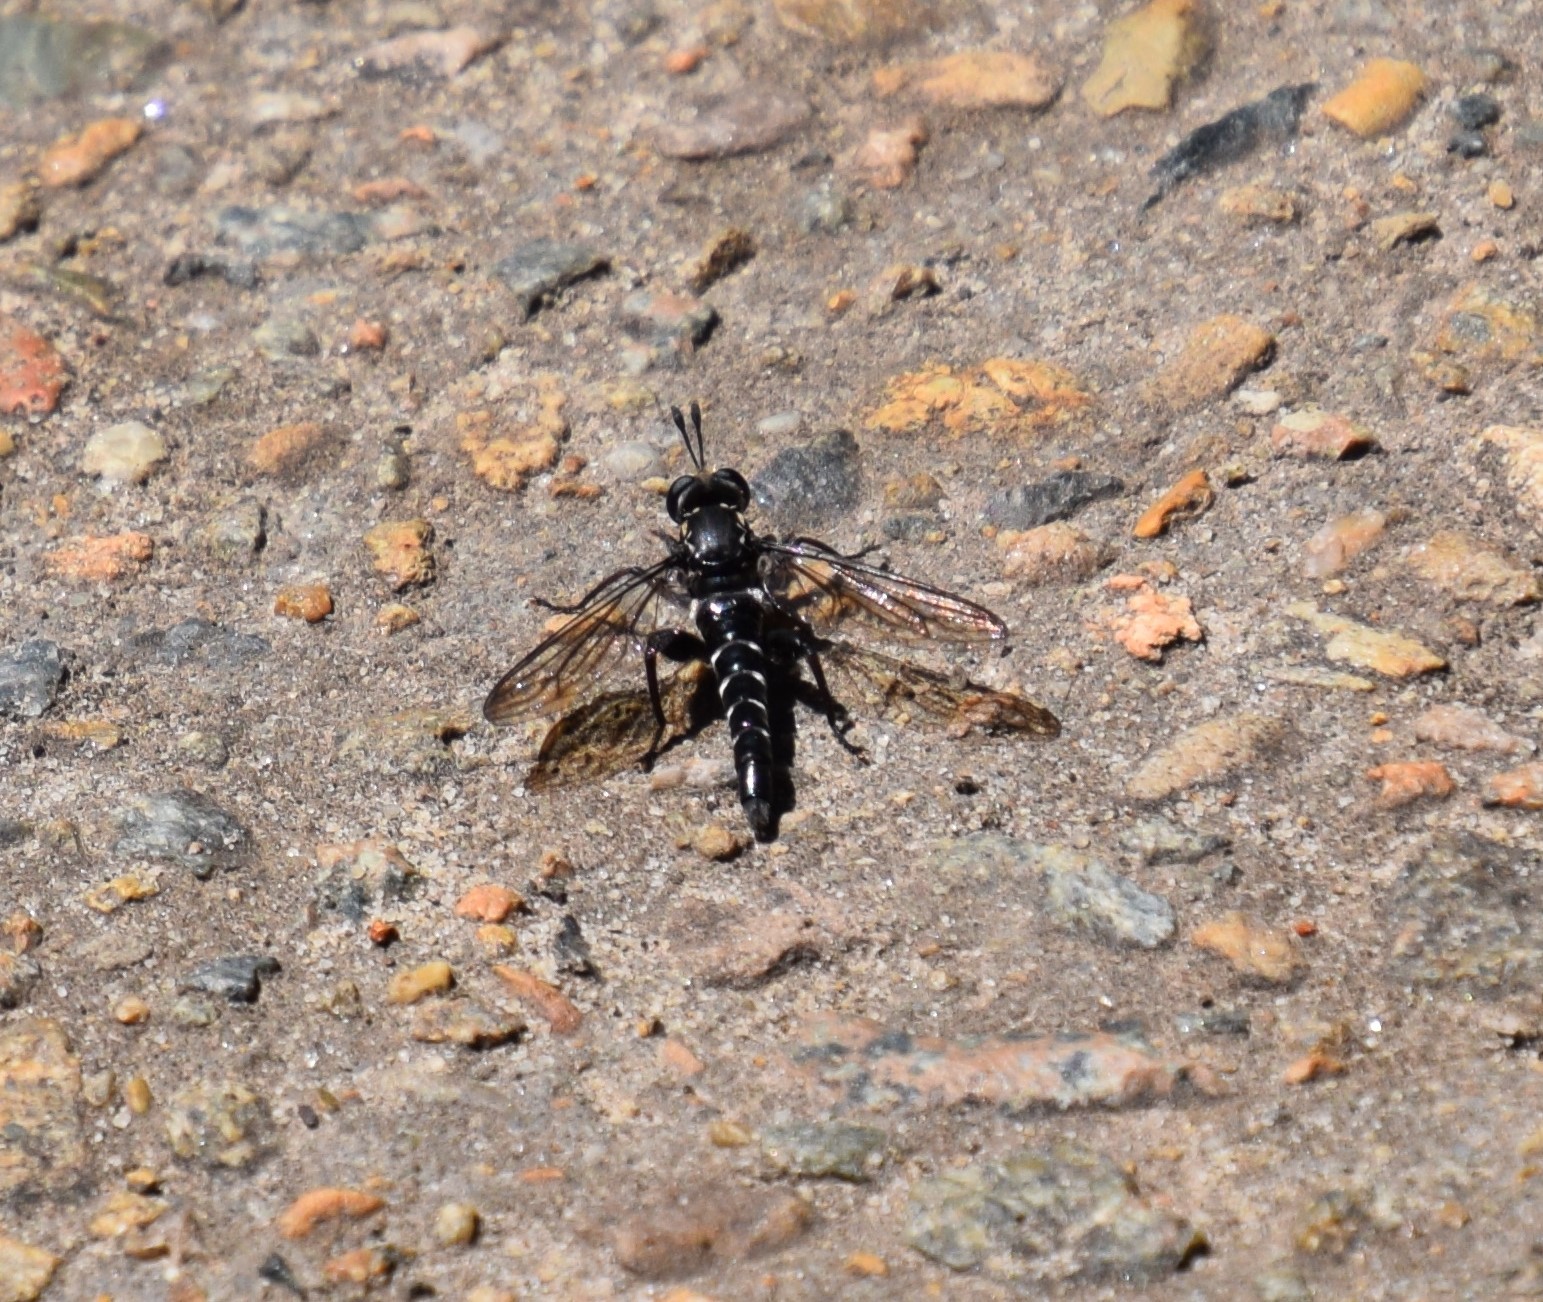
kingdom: Animalia
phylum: Arthropoda
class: Insecta
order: Diptera
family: Mydidae
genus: Miltinus
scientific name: Miltinus viduatus
